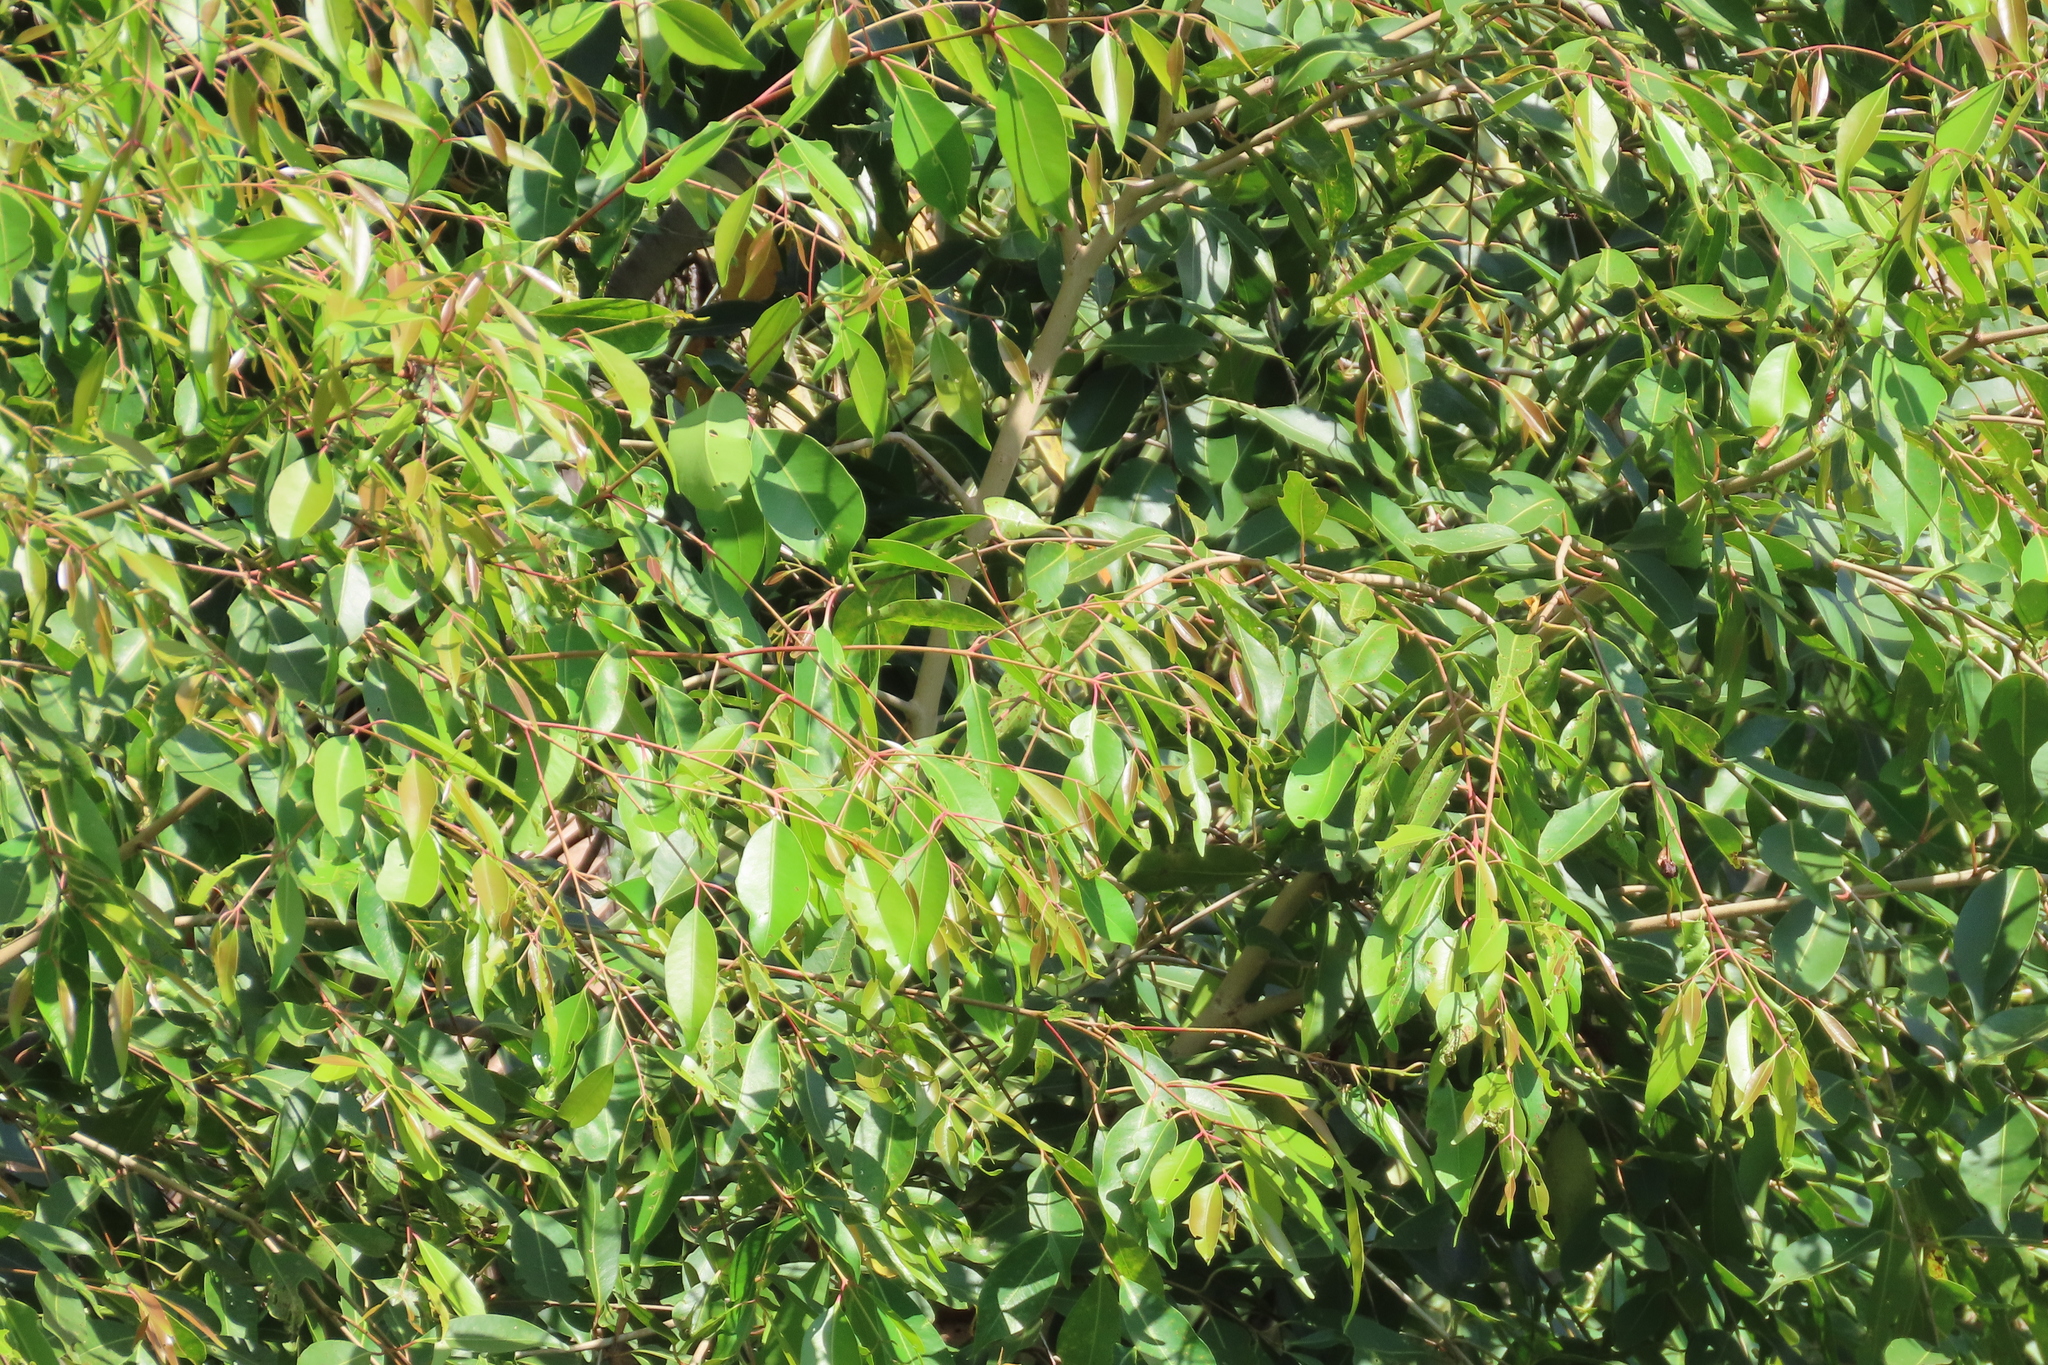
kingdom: Plantae
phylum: Tracheophyta
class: Magnoliopsida
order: Myrtales
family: Myrtaceae
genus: Syzygium
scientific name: Syzygium cumini
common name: Java plum
